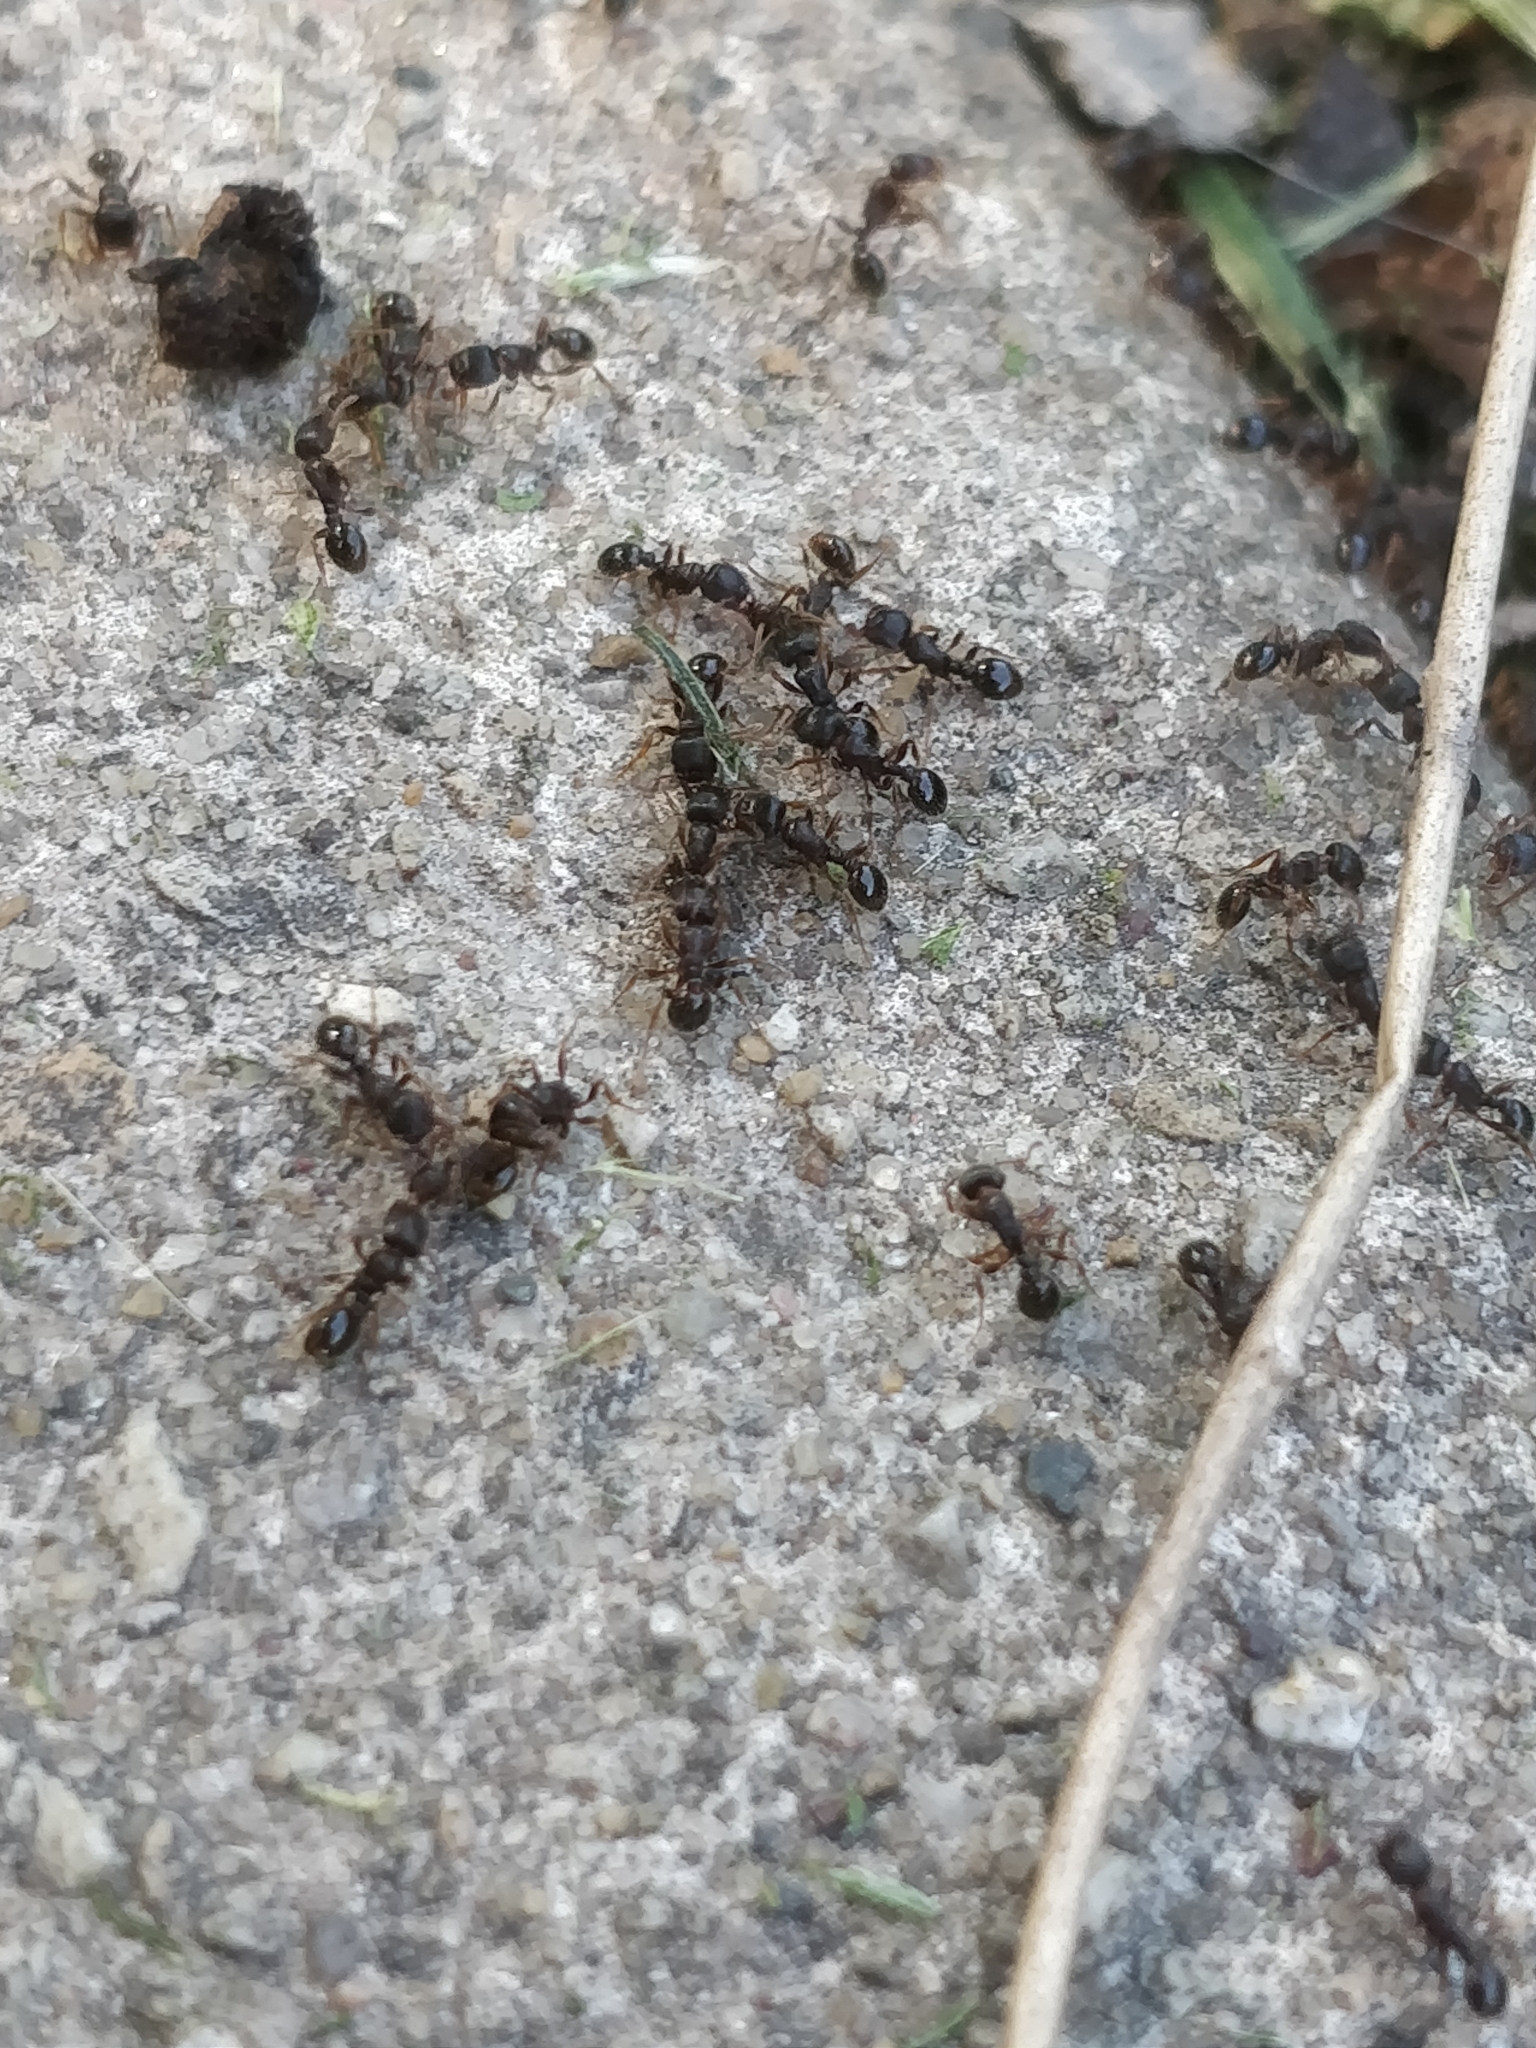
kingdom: Animalia
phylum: Arthropoda
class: Insecta
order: Hymenoptera
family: Formicidae
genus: Tetramorium
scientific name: Tetramorium immigrans
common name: Pavement ant
